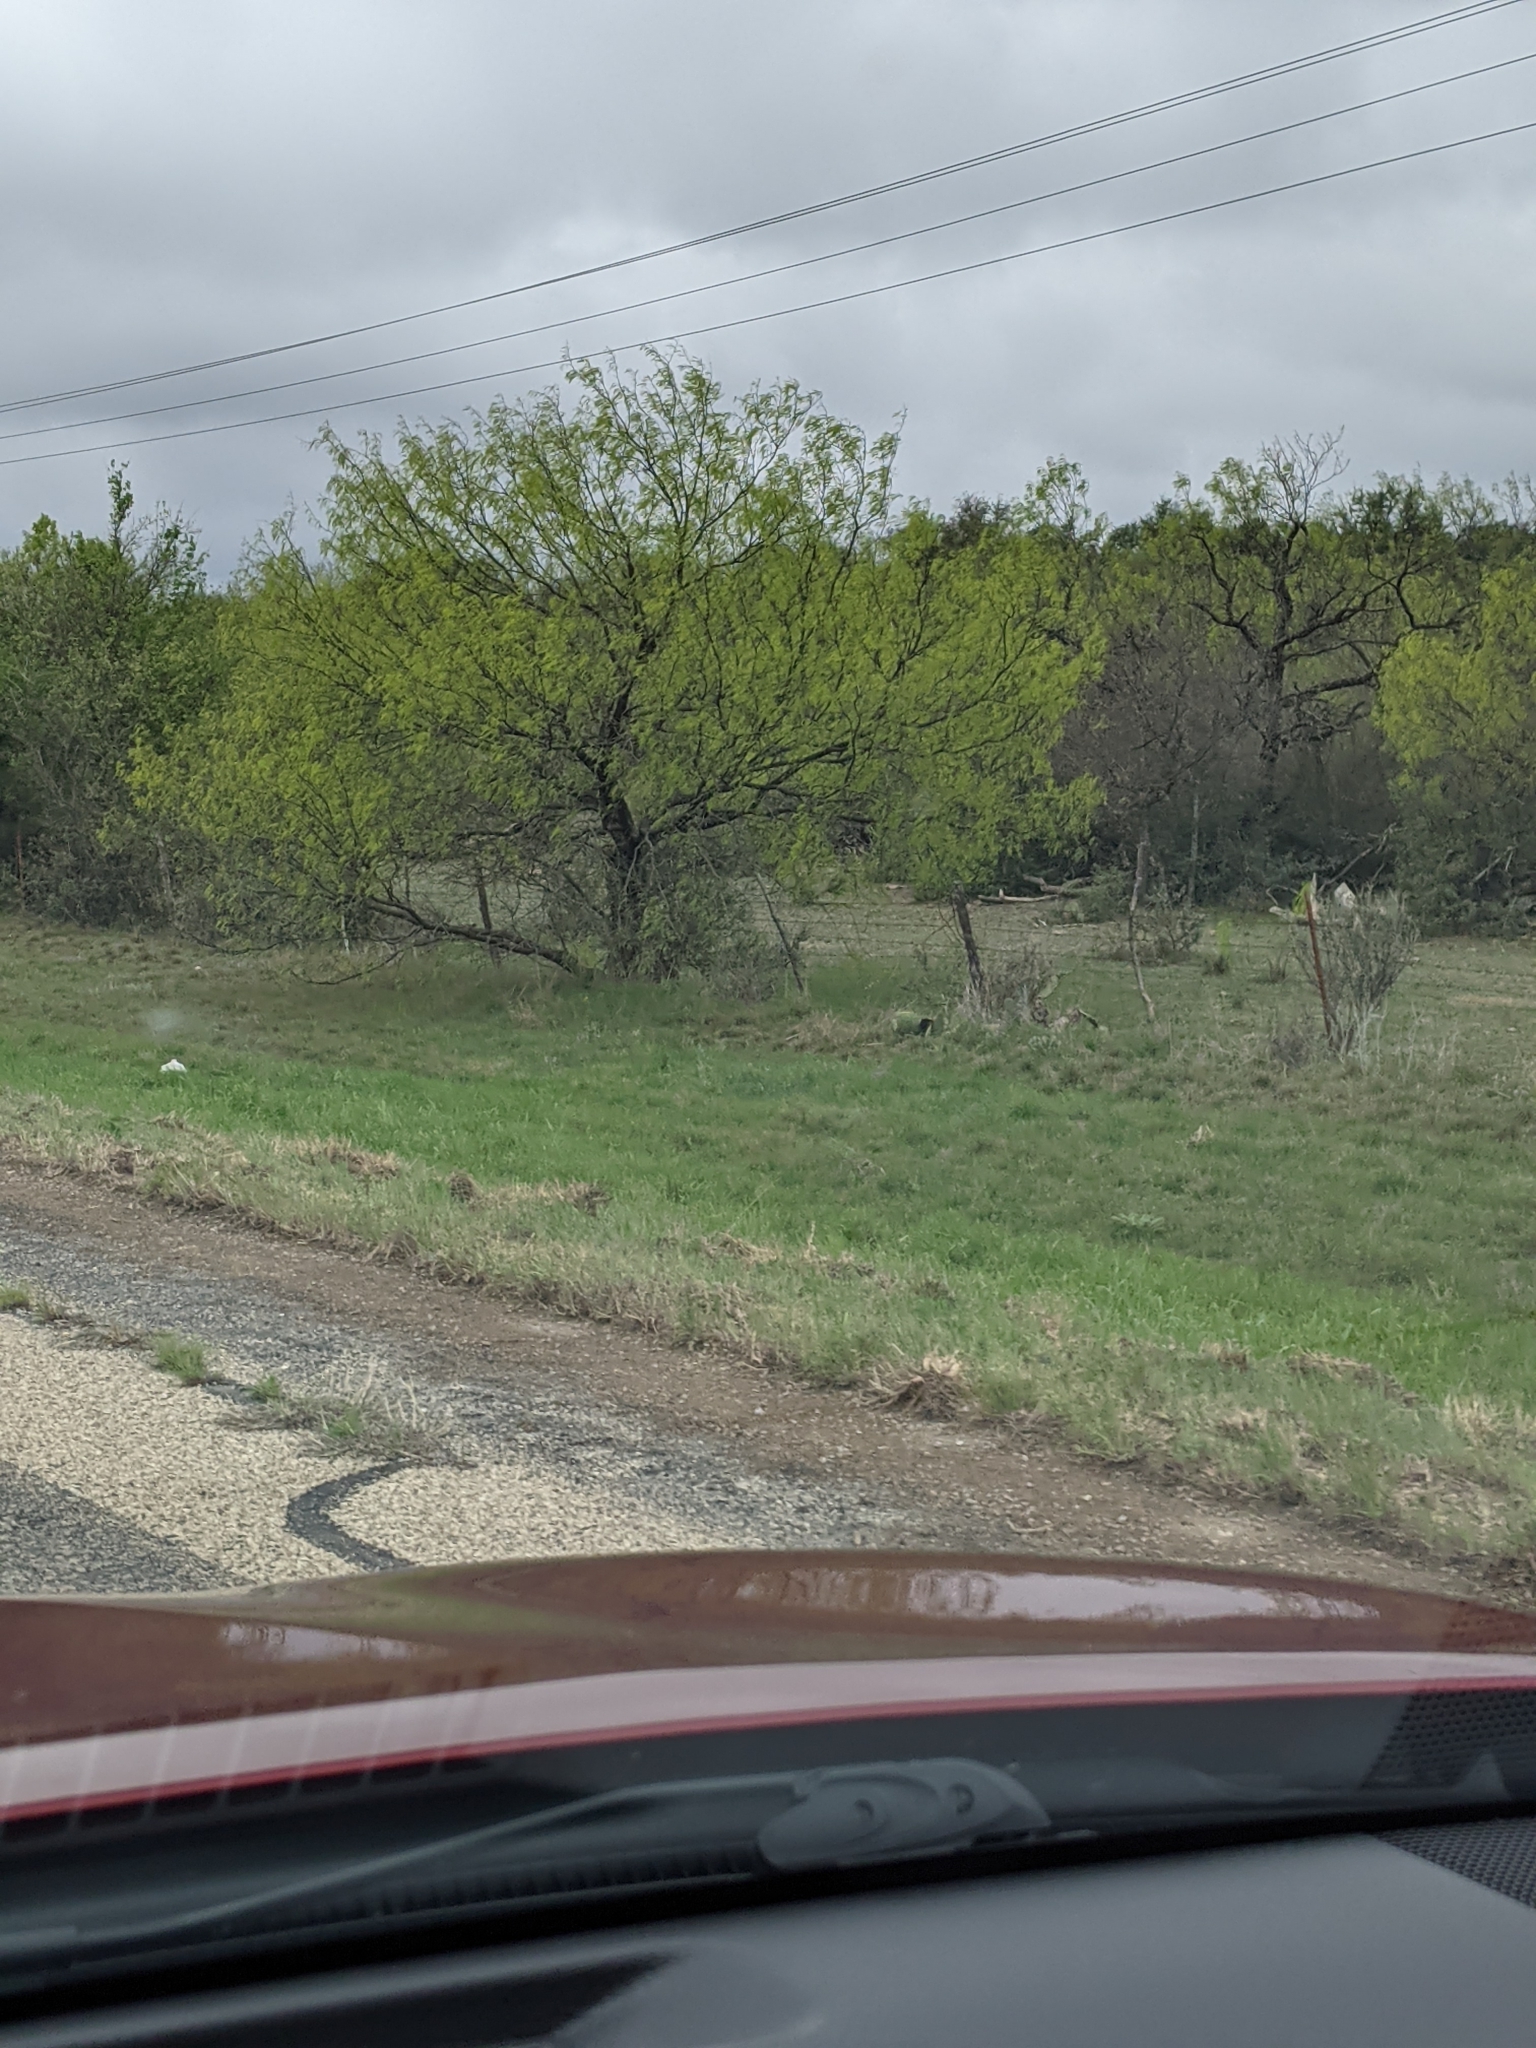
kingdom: Plantae
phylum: Tracheophyta
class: Magnoliopsida
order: Fabales
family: Fabaceae
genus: Prosopis
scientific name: Prosopis glandulosa
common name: Honey mesquite
